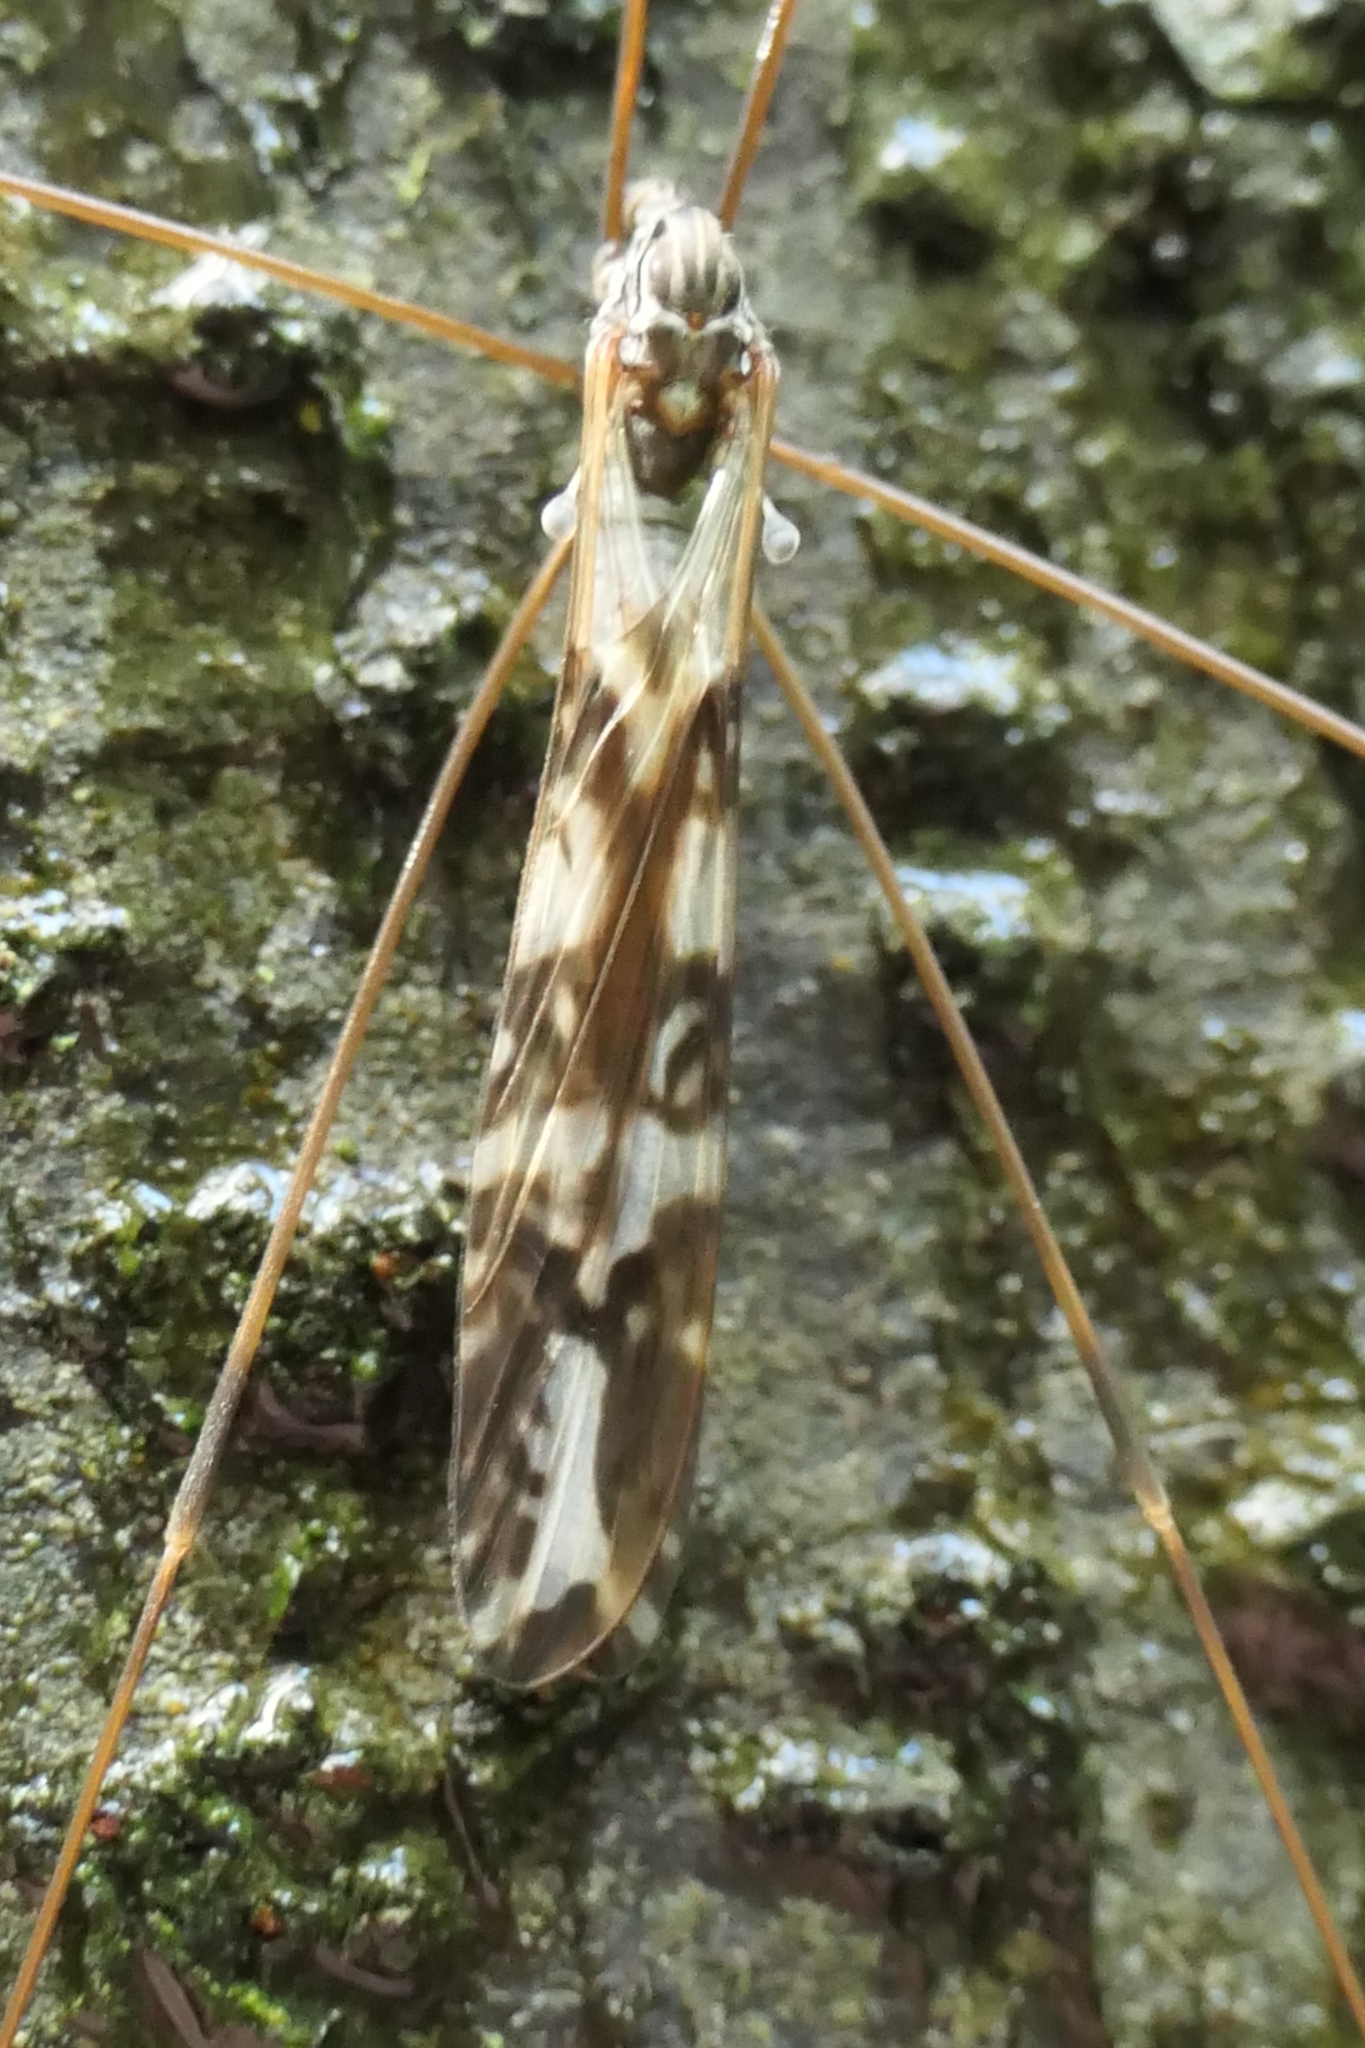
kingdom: Animalia
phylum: Arthropoda
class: Insecta
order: Diptera
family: Limoniidae
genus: Discobola
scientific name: Discobola dohrni
